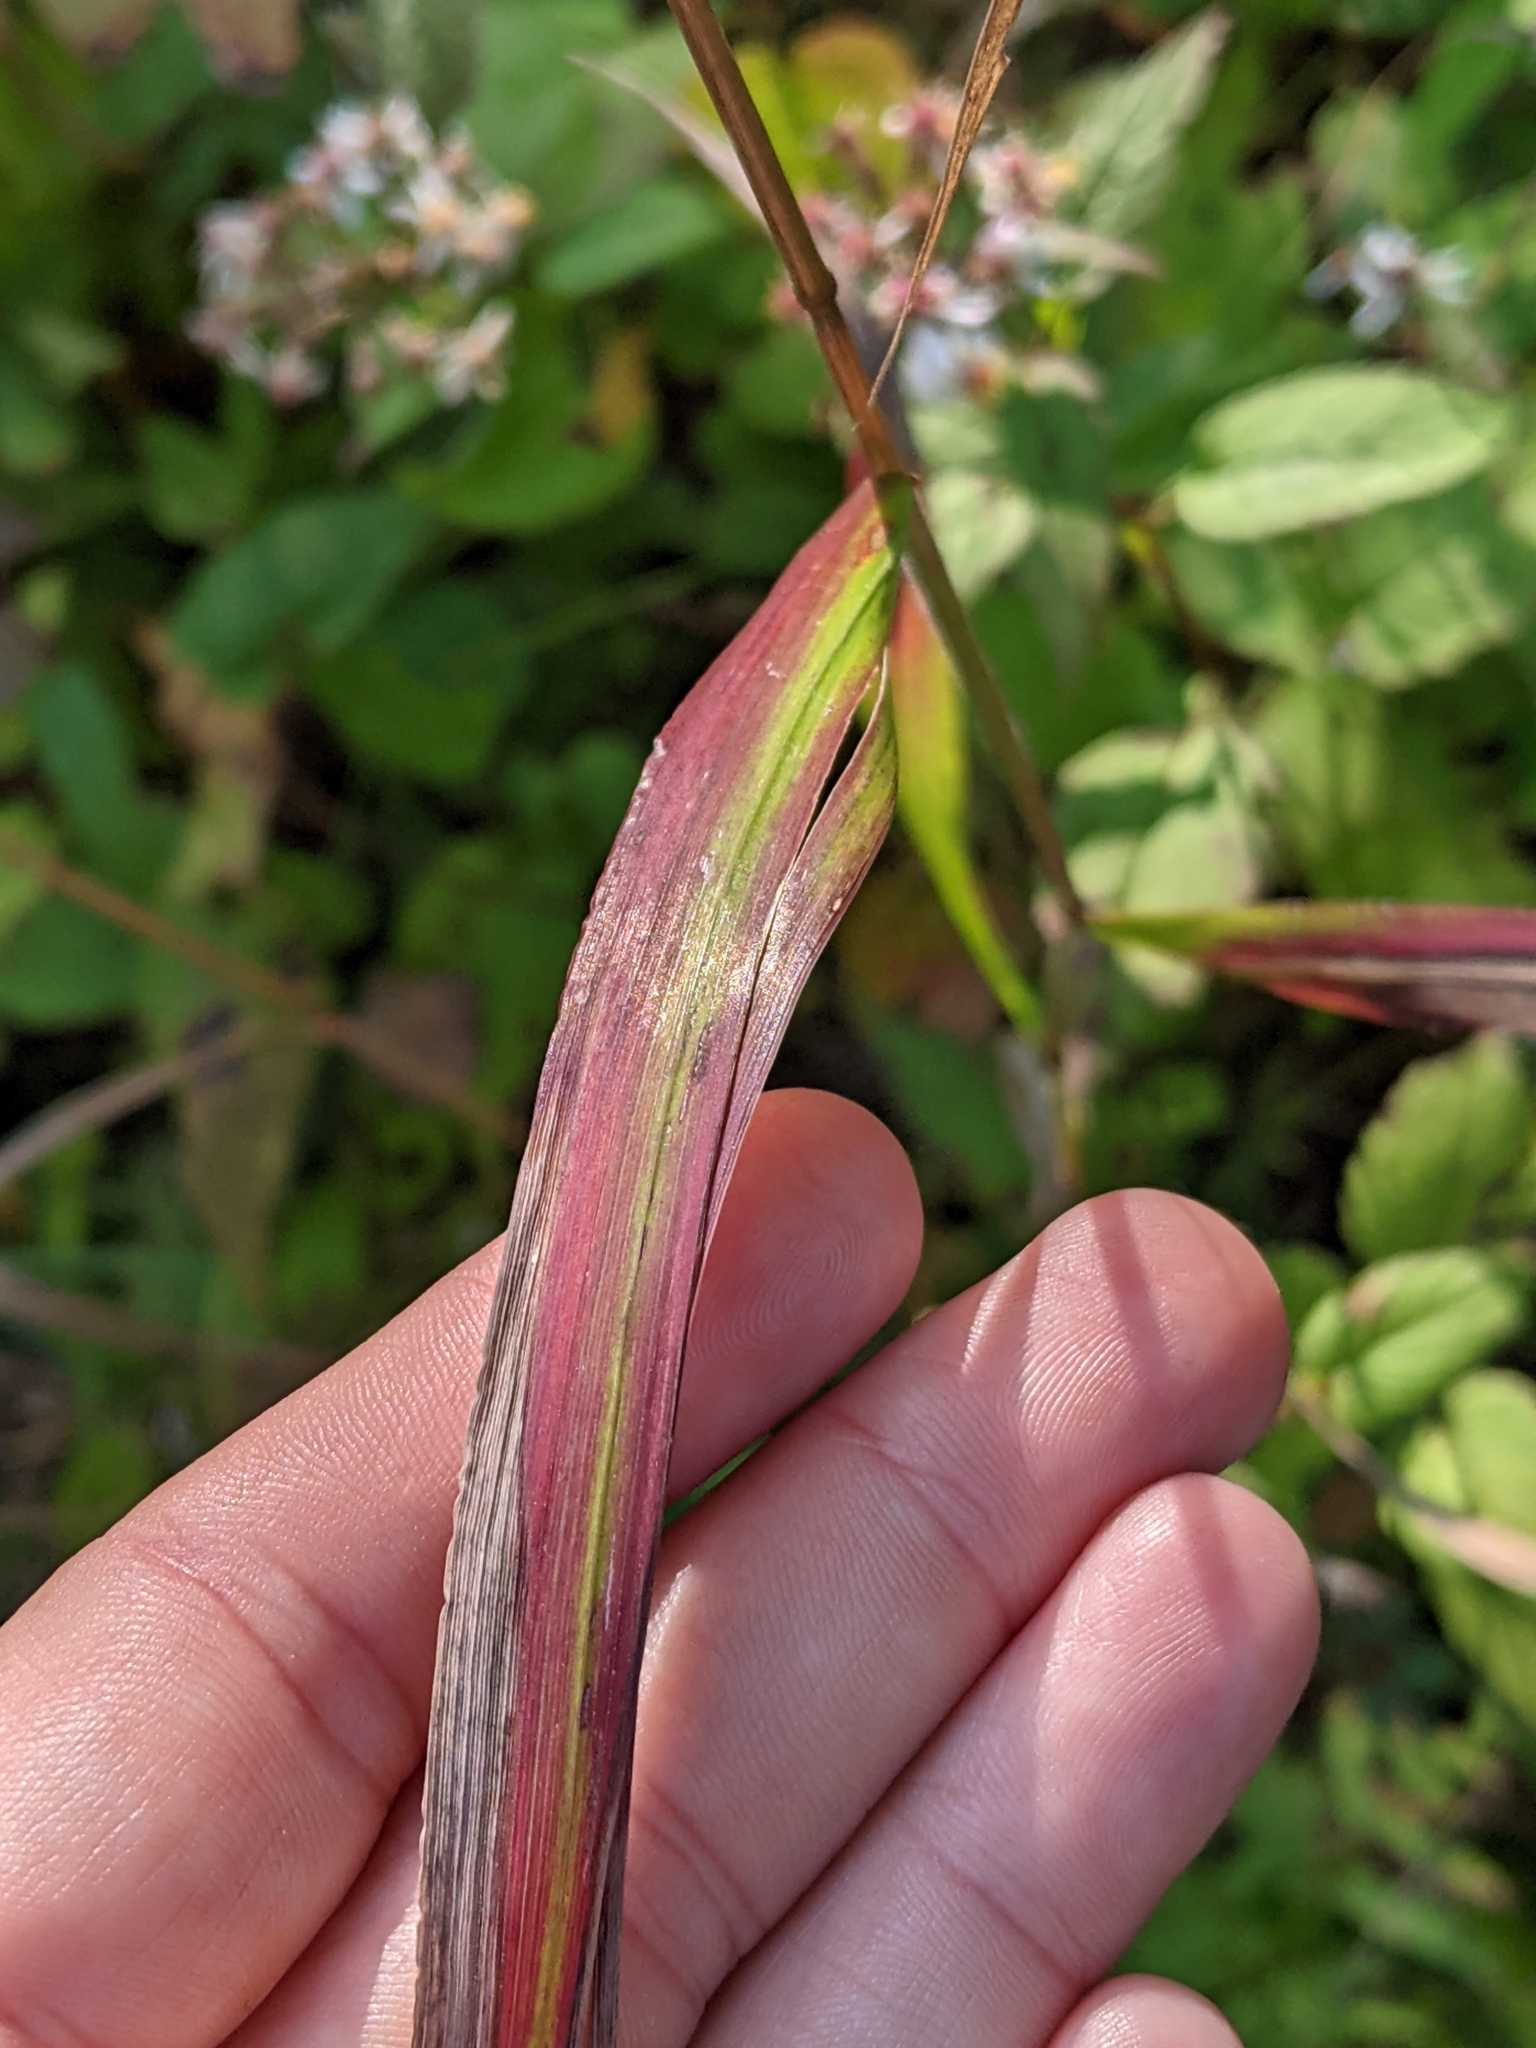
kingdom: Plantae
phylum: Tracheophyta
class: Liliopsida
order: Poales
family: Poaceae
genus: Elymus
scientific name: Elymus hystrix
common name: Bottlebrush grass
